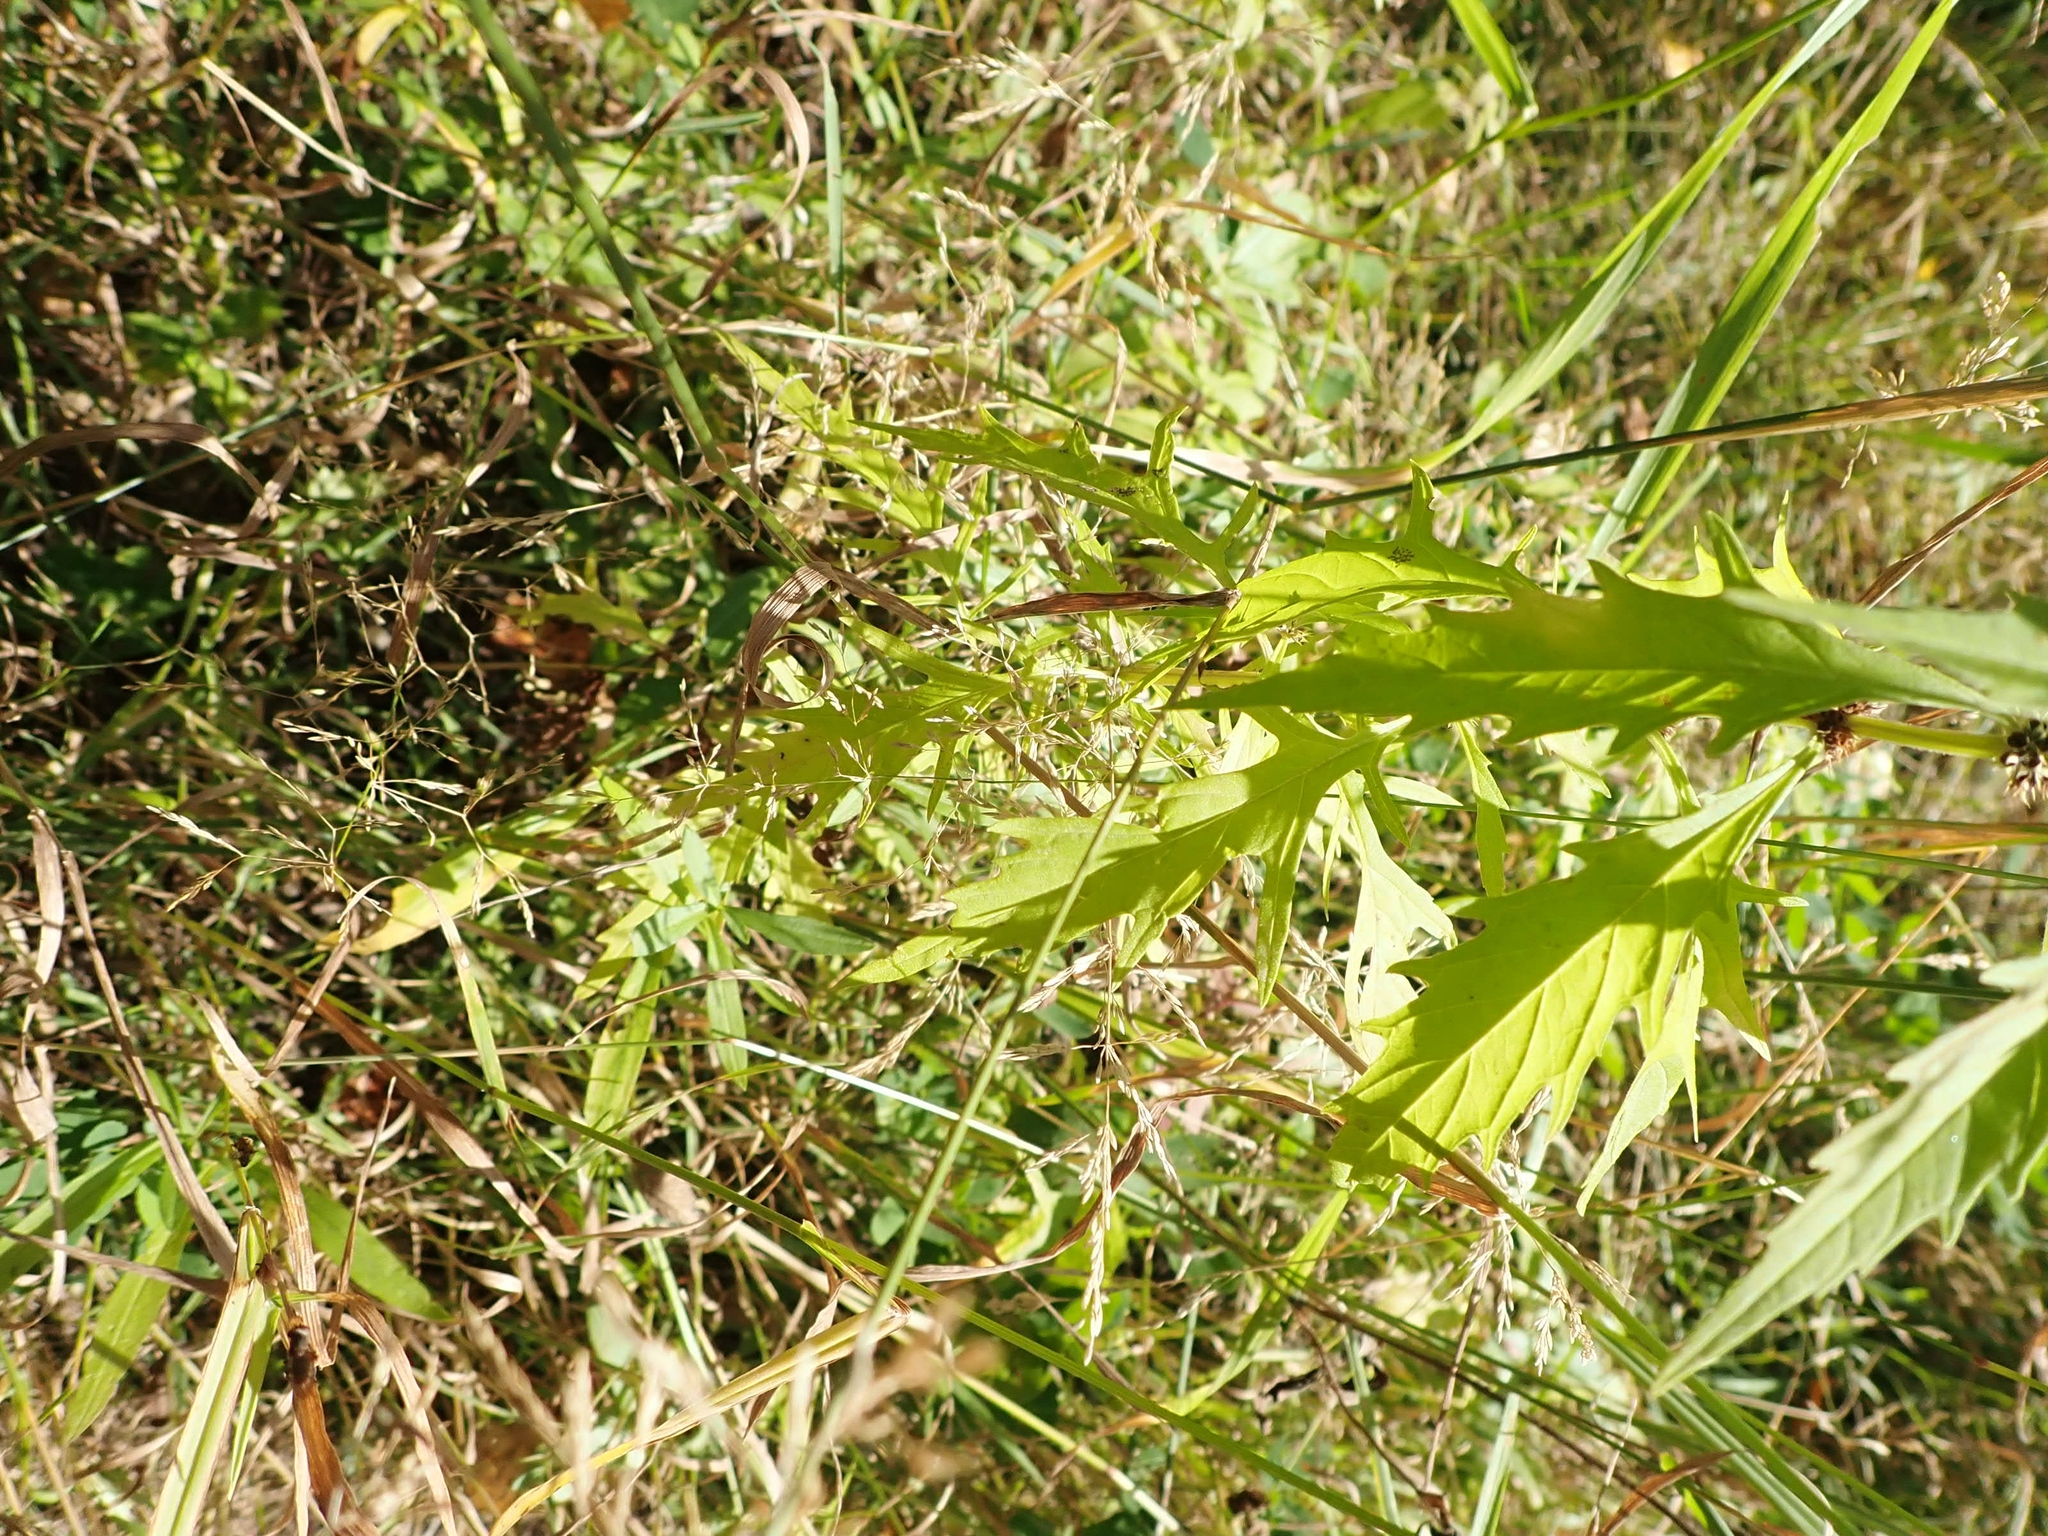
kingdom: Plantae
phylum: Tracheophyta
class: Magnoliopsida
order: Lamiales
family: Lamiaceae
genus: Lycopus
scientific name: Lycopus americanus
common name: American bugleweed
